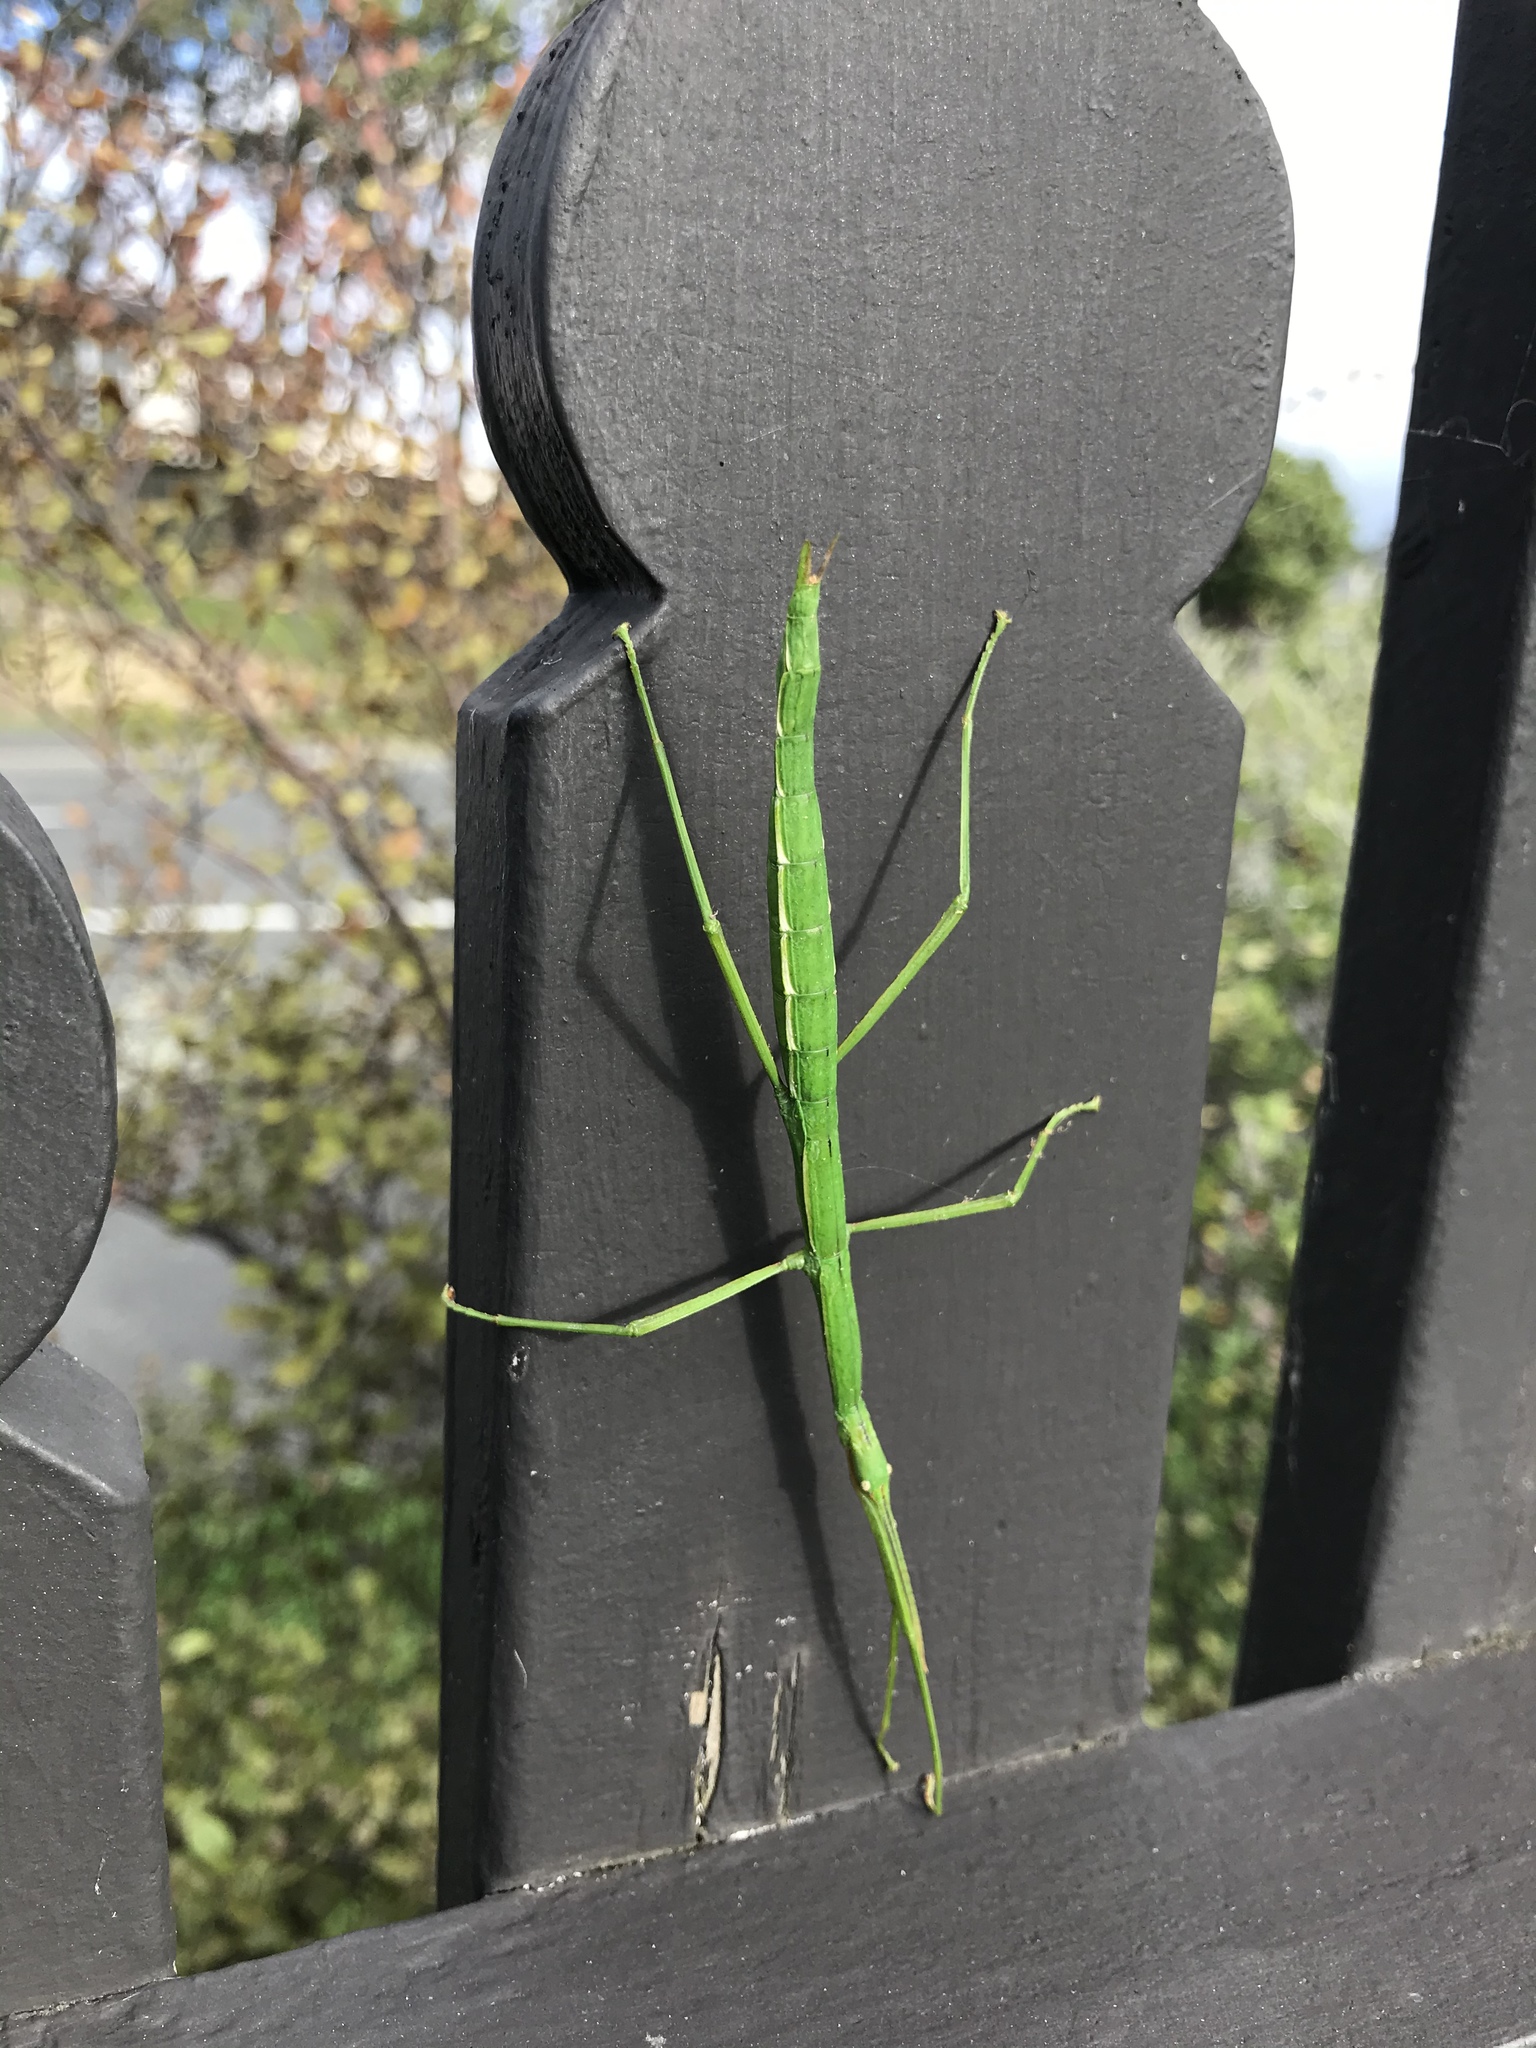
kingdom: Animalia
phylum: Arthropoda
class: Insecta
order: Phasmida
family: Phasmatidae
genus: Clitarchus
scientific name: Clitarchus hookeri
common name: Smooth stick insect
